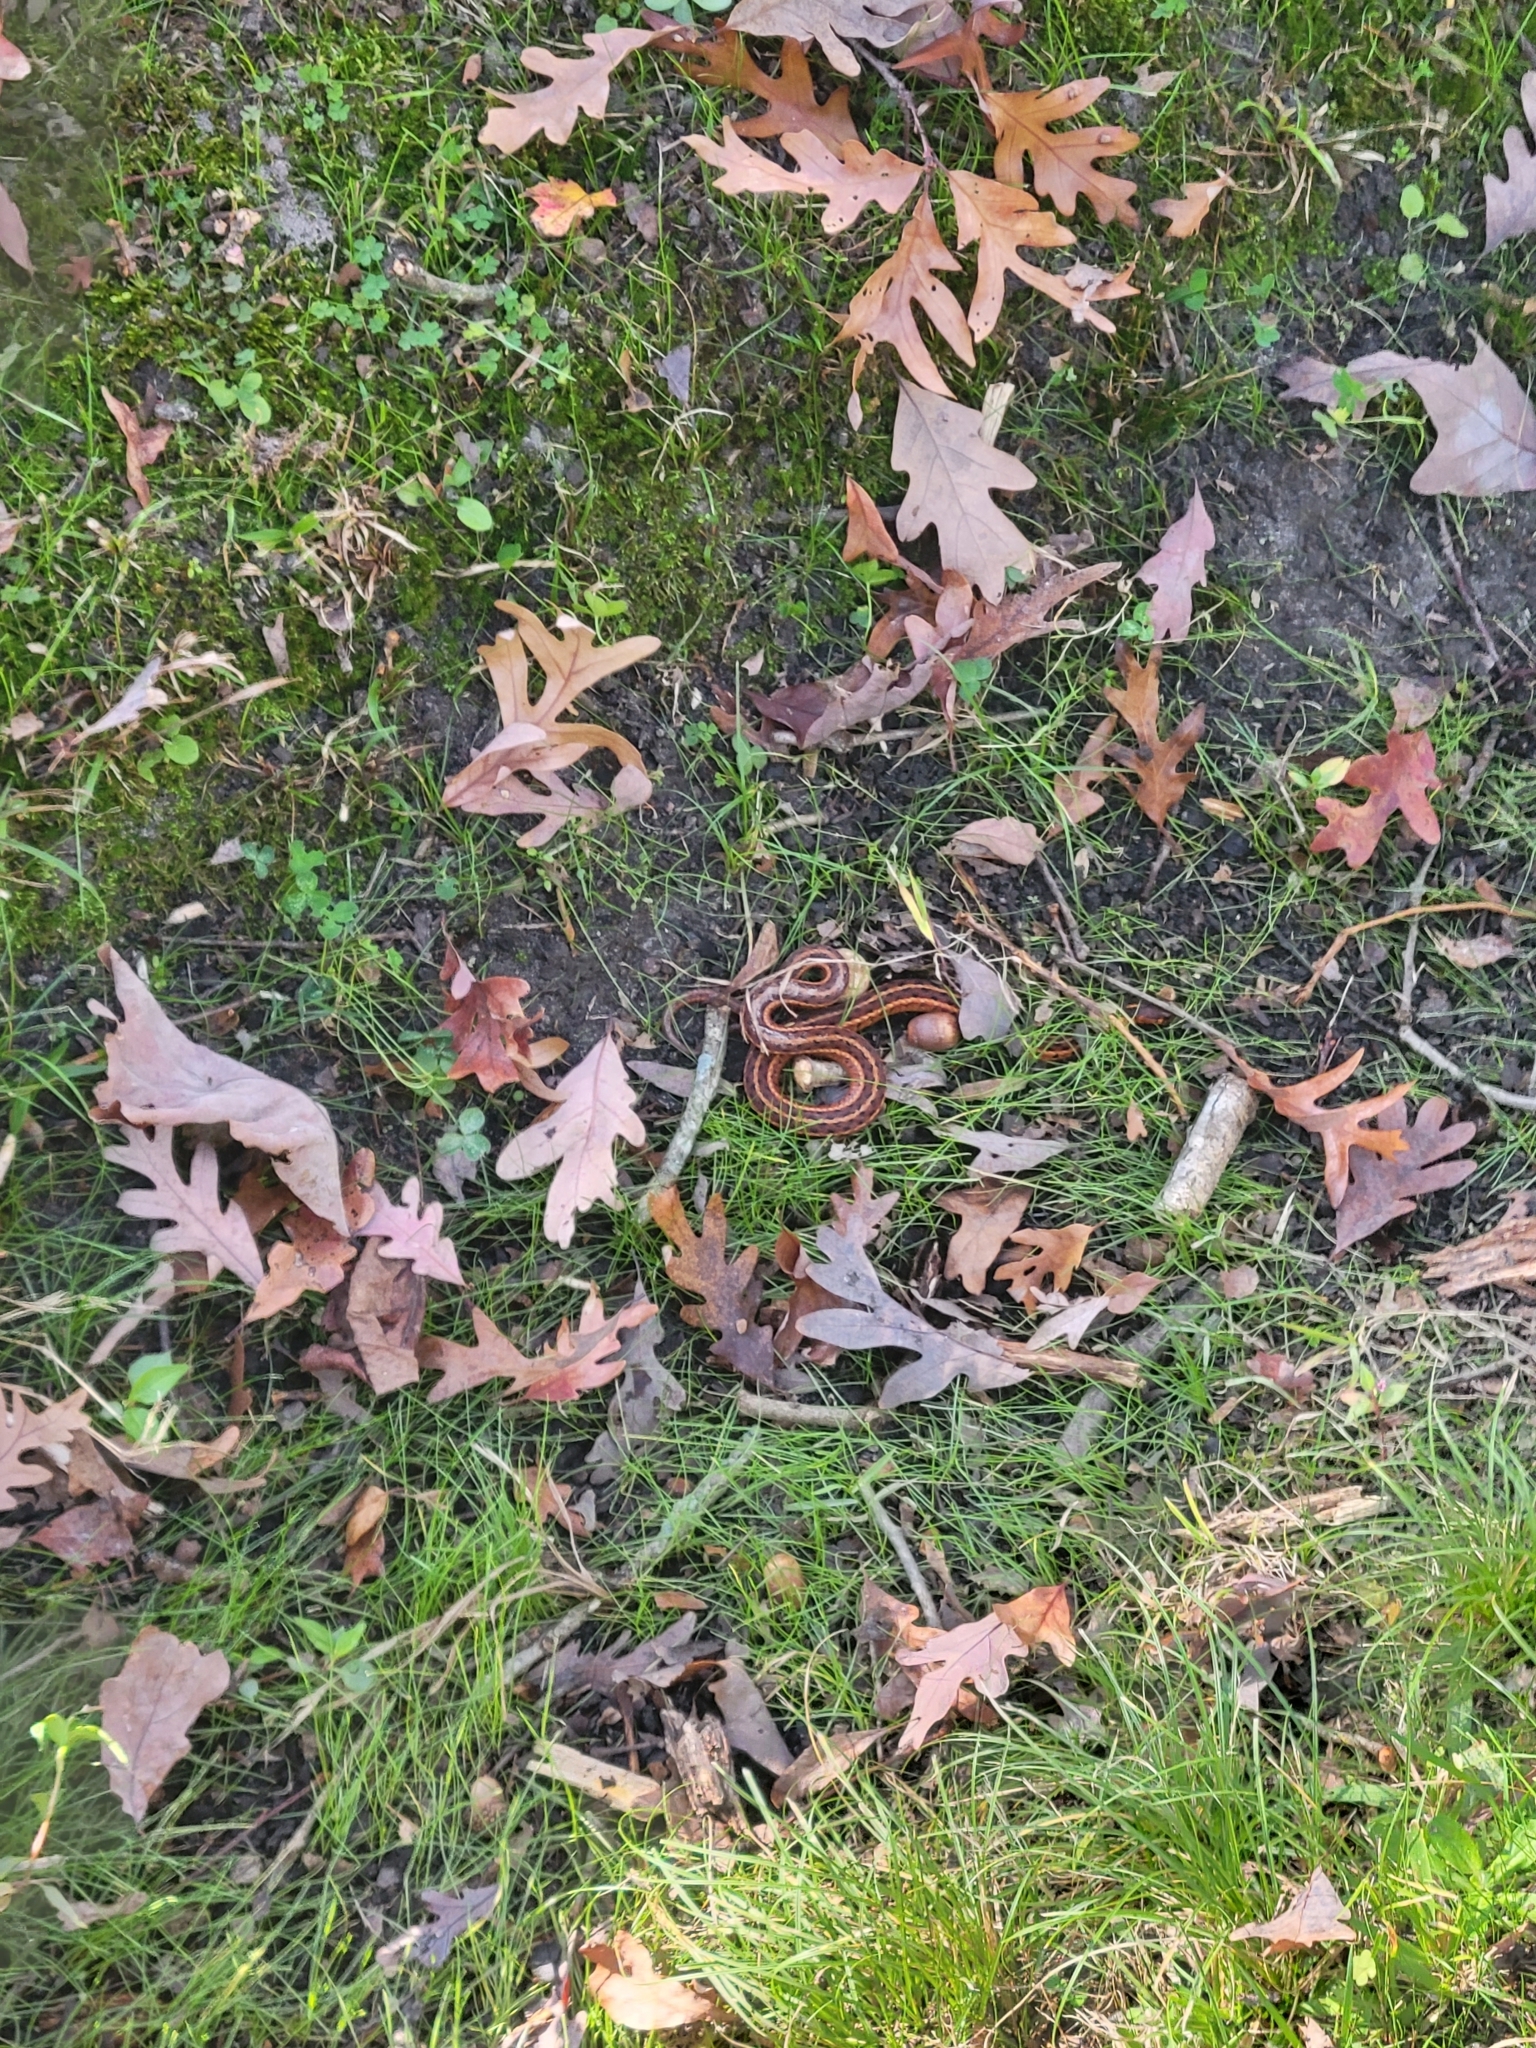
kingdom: Animalia
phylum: Chordata
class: Squamata
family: Colubridae
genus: Thamnophis
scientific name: Thamnophis sirtalis
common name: Common garter snake
